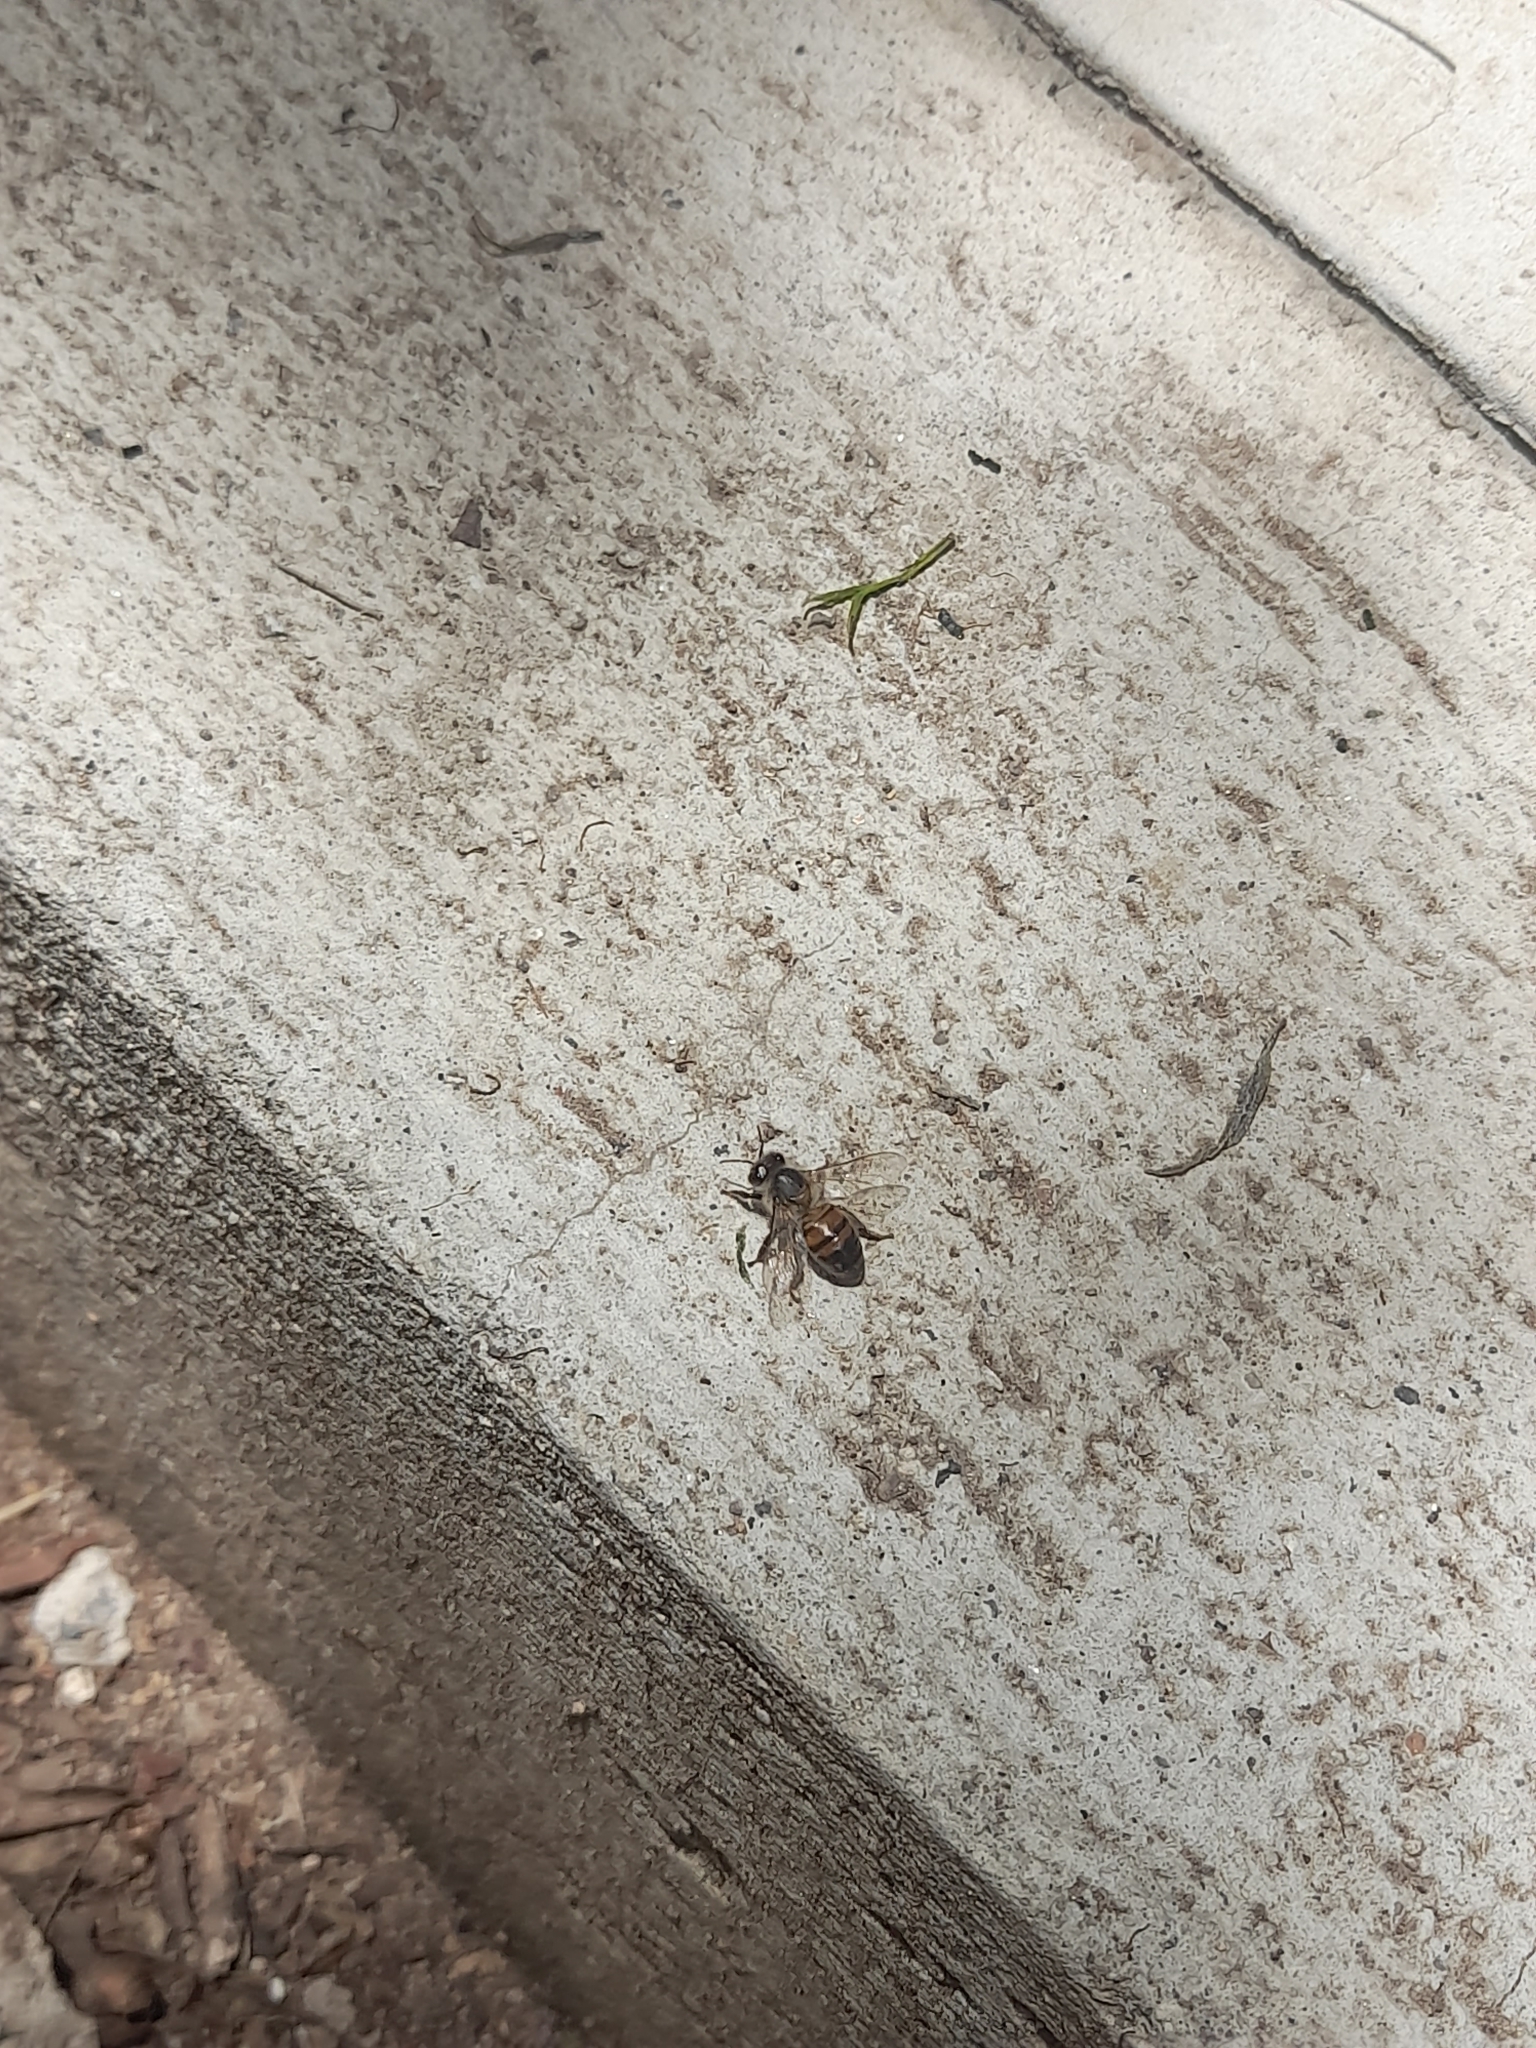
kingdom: Animalia
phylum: Arthropoda
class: Insecta
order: Hymenoptera
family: Apidae
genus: Apis
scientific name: Apis mellifera
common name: Honey bee
